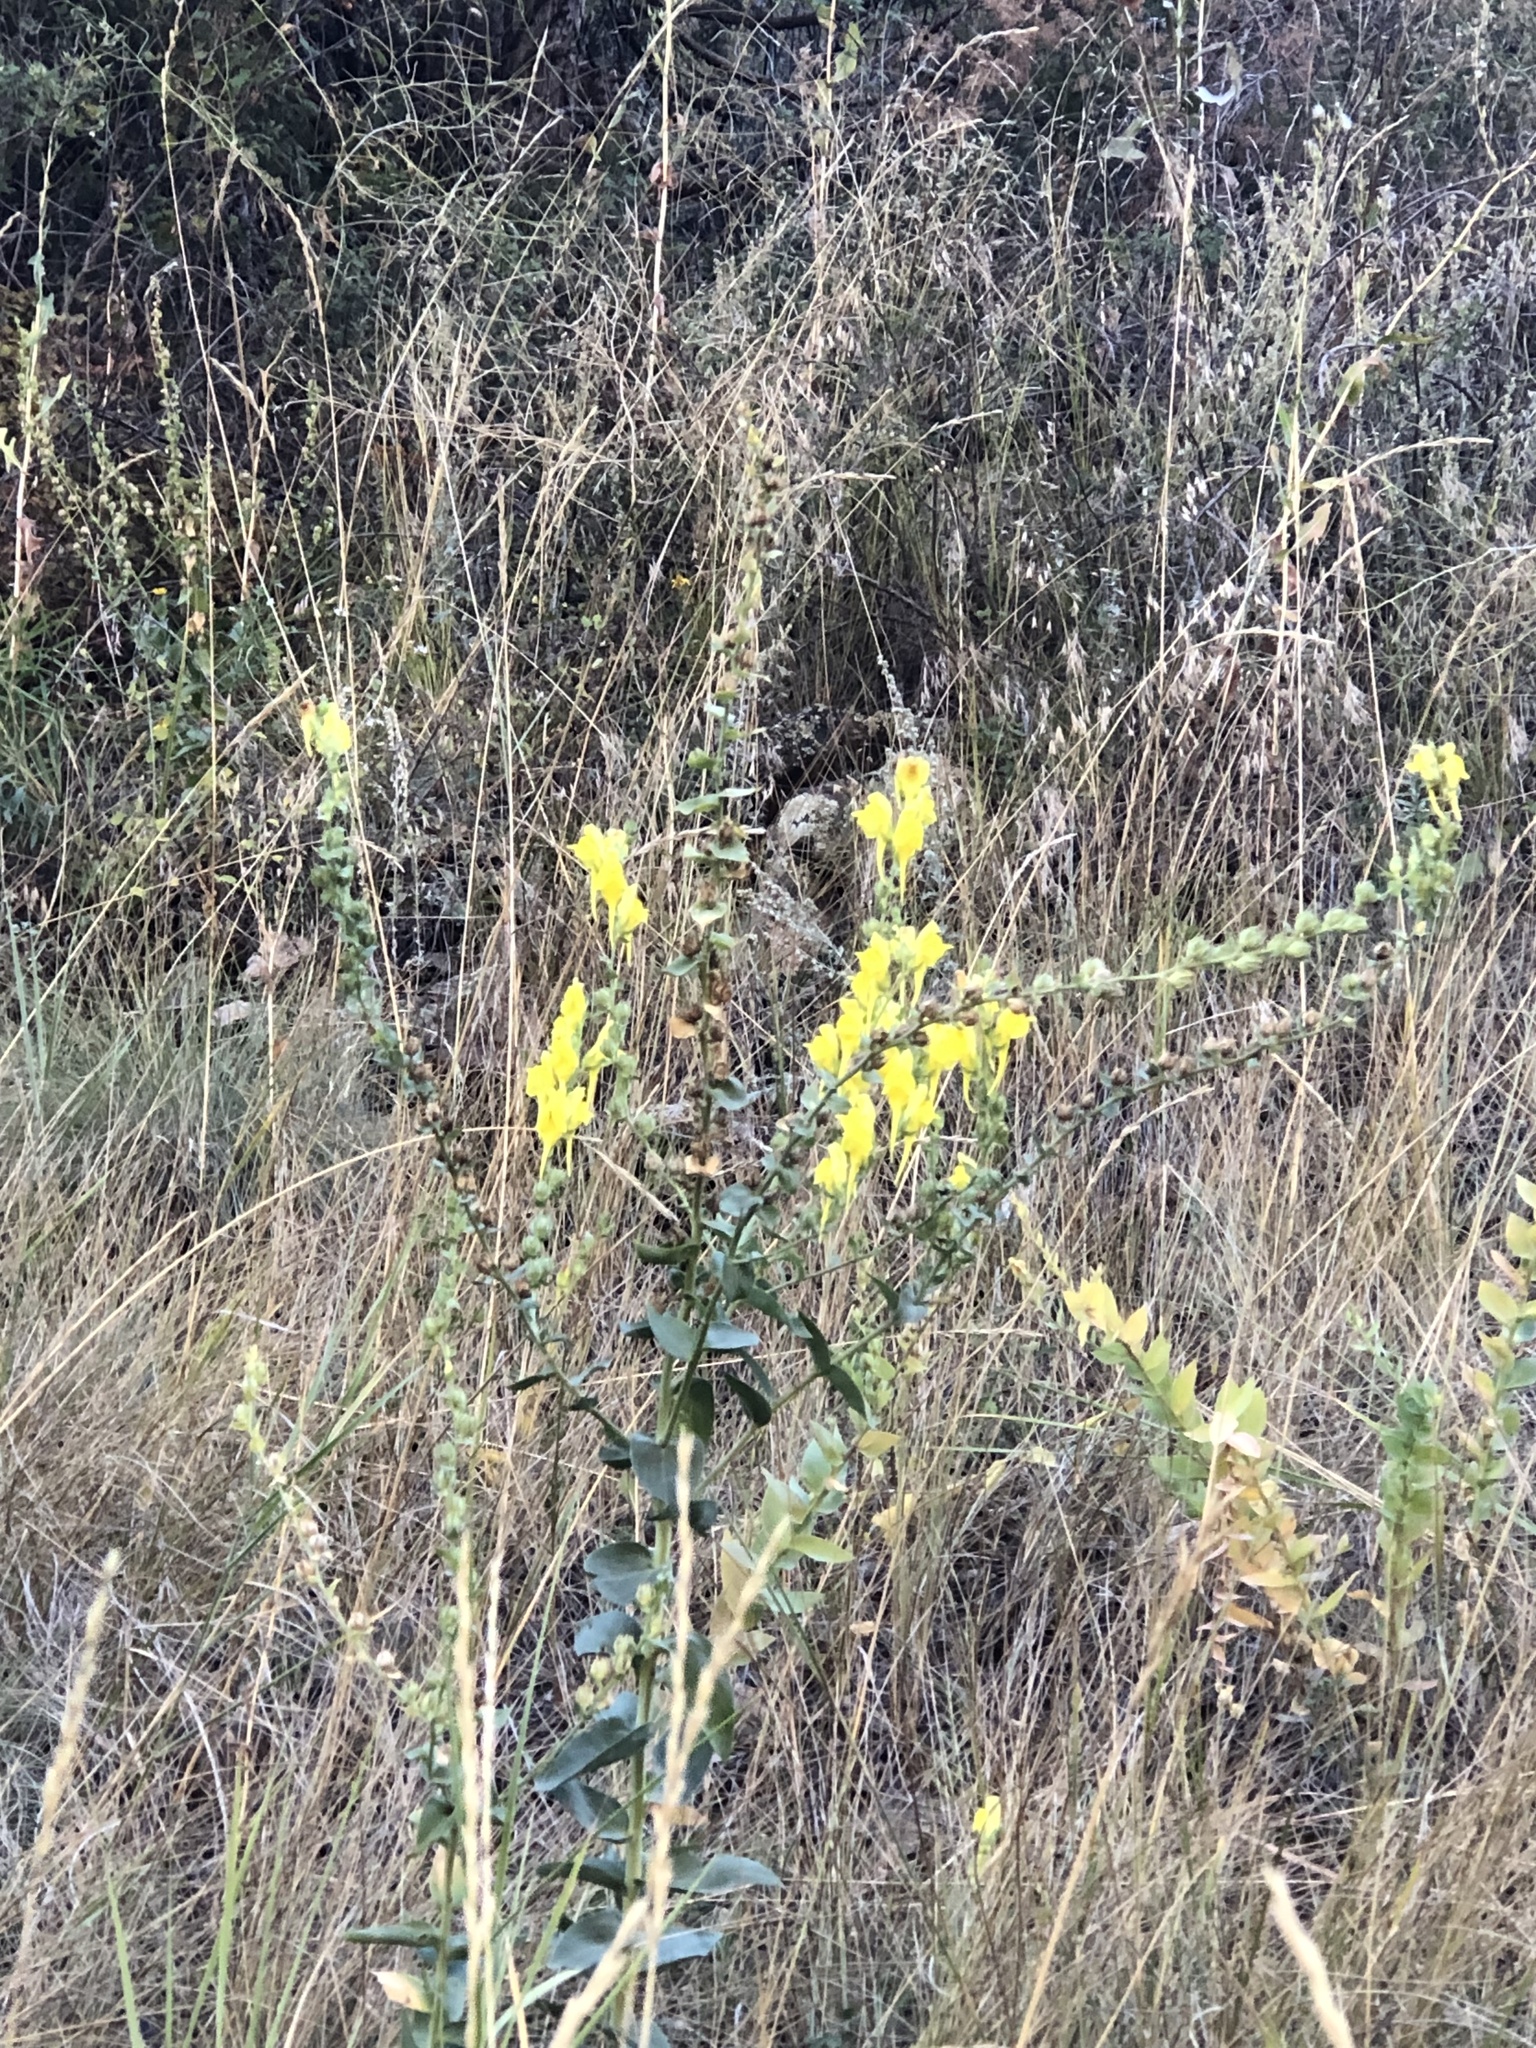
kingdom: Plantae
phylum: Tracheophyta
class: Magnoliopsida
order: Lamiales
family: Plantaginaceae
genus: Linaria
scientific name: Linaria dalmatica
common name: Dalmatian toadflax
